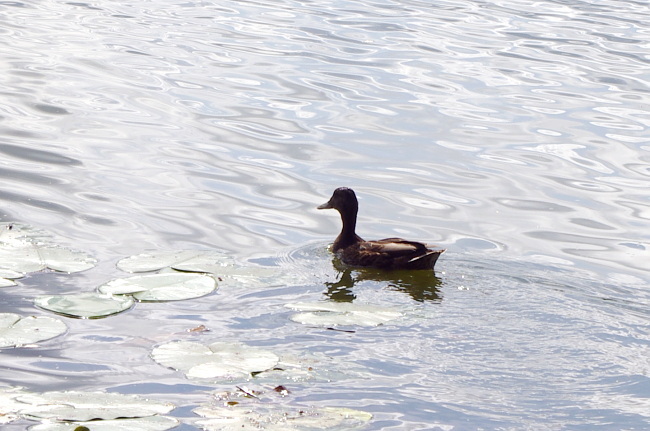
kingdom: Animalia
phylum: Chordata
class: Aves
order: Anseriformes
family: Anatidae
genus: Anas
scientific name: Anas platyrhynchos
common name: Mallard
